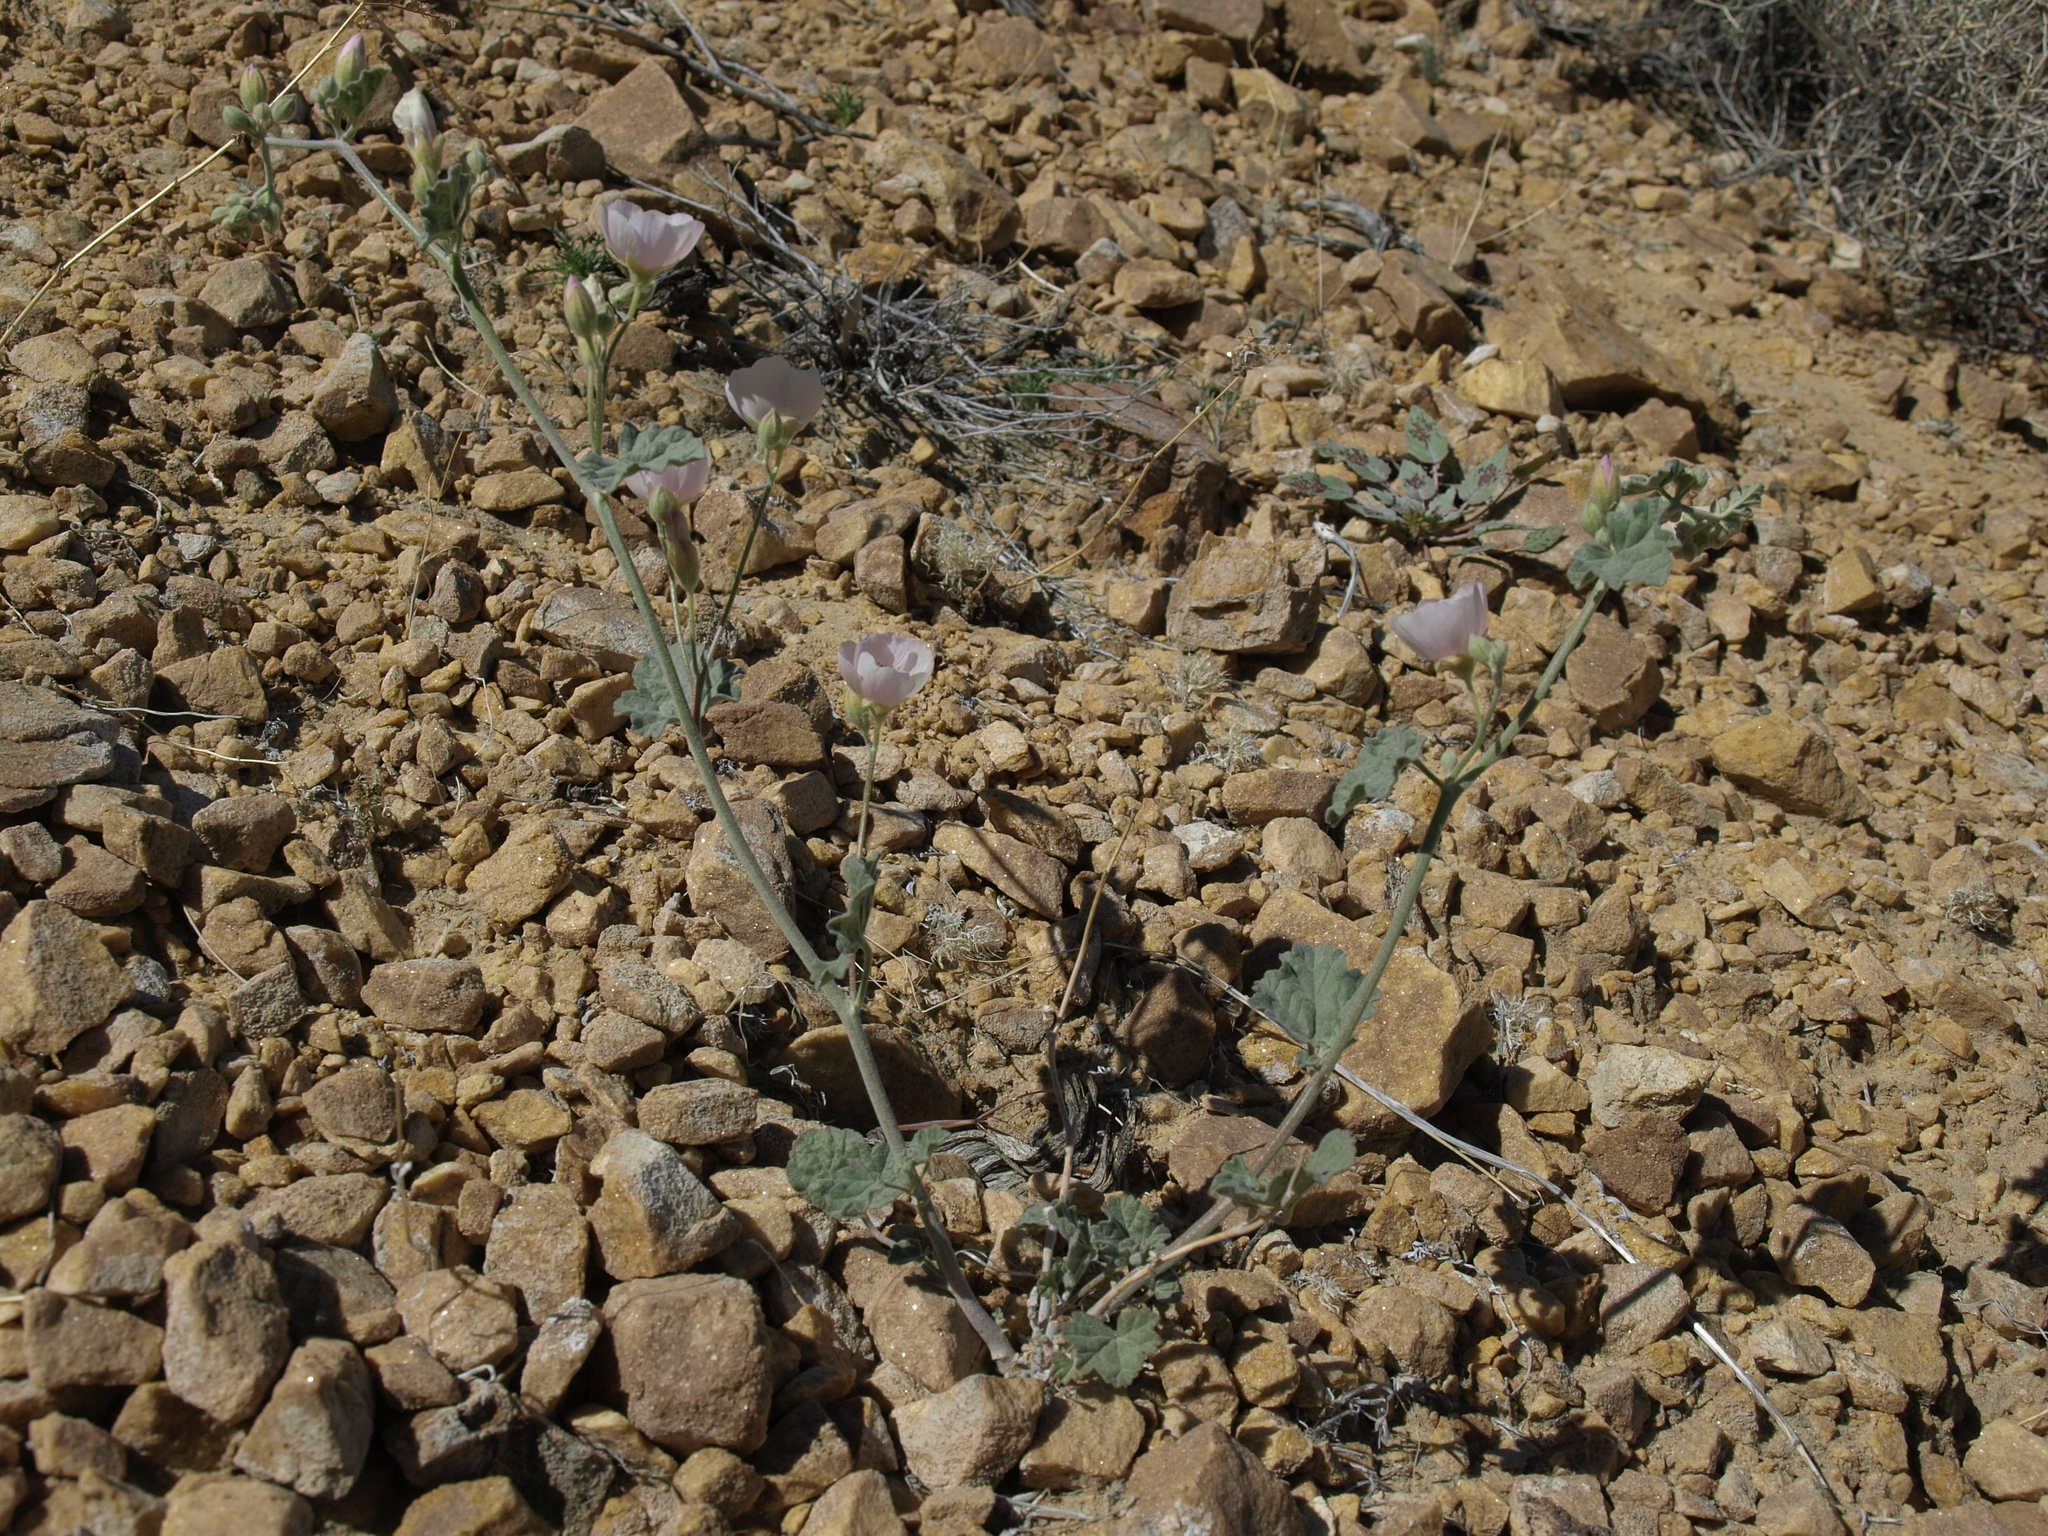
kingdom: Plantae
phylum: Tracheophyta
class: Magnoliopsida
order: Malvales
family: Malvaceae
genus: Sphaeralcea
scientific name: Sphaeralcea ambigua
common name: Apricot globe-mallow
